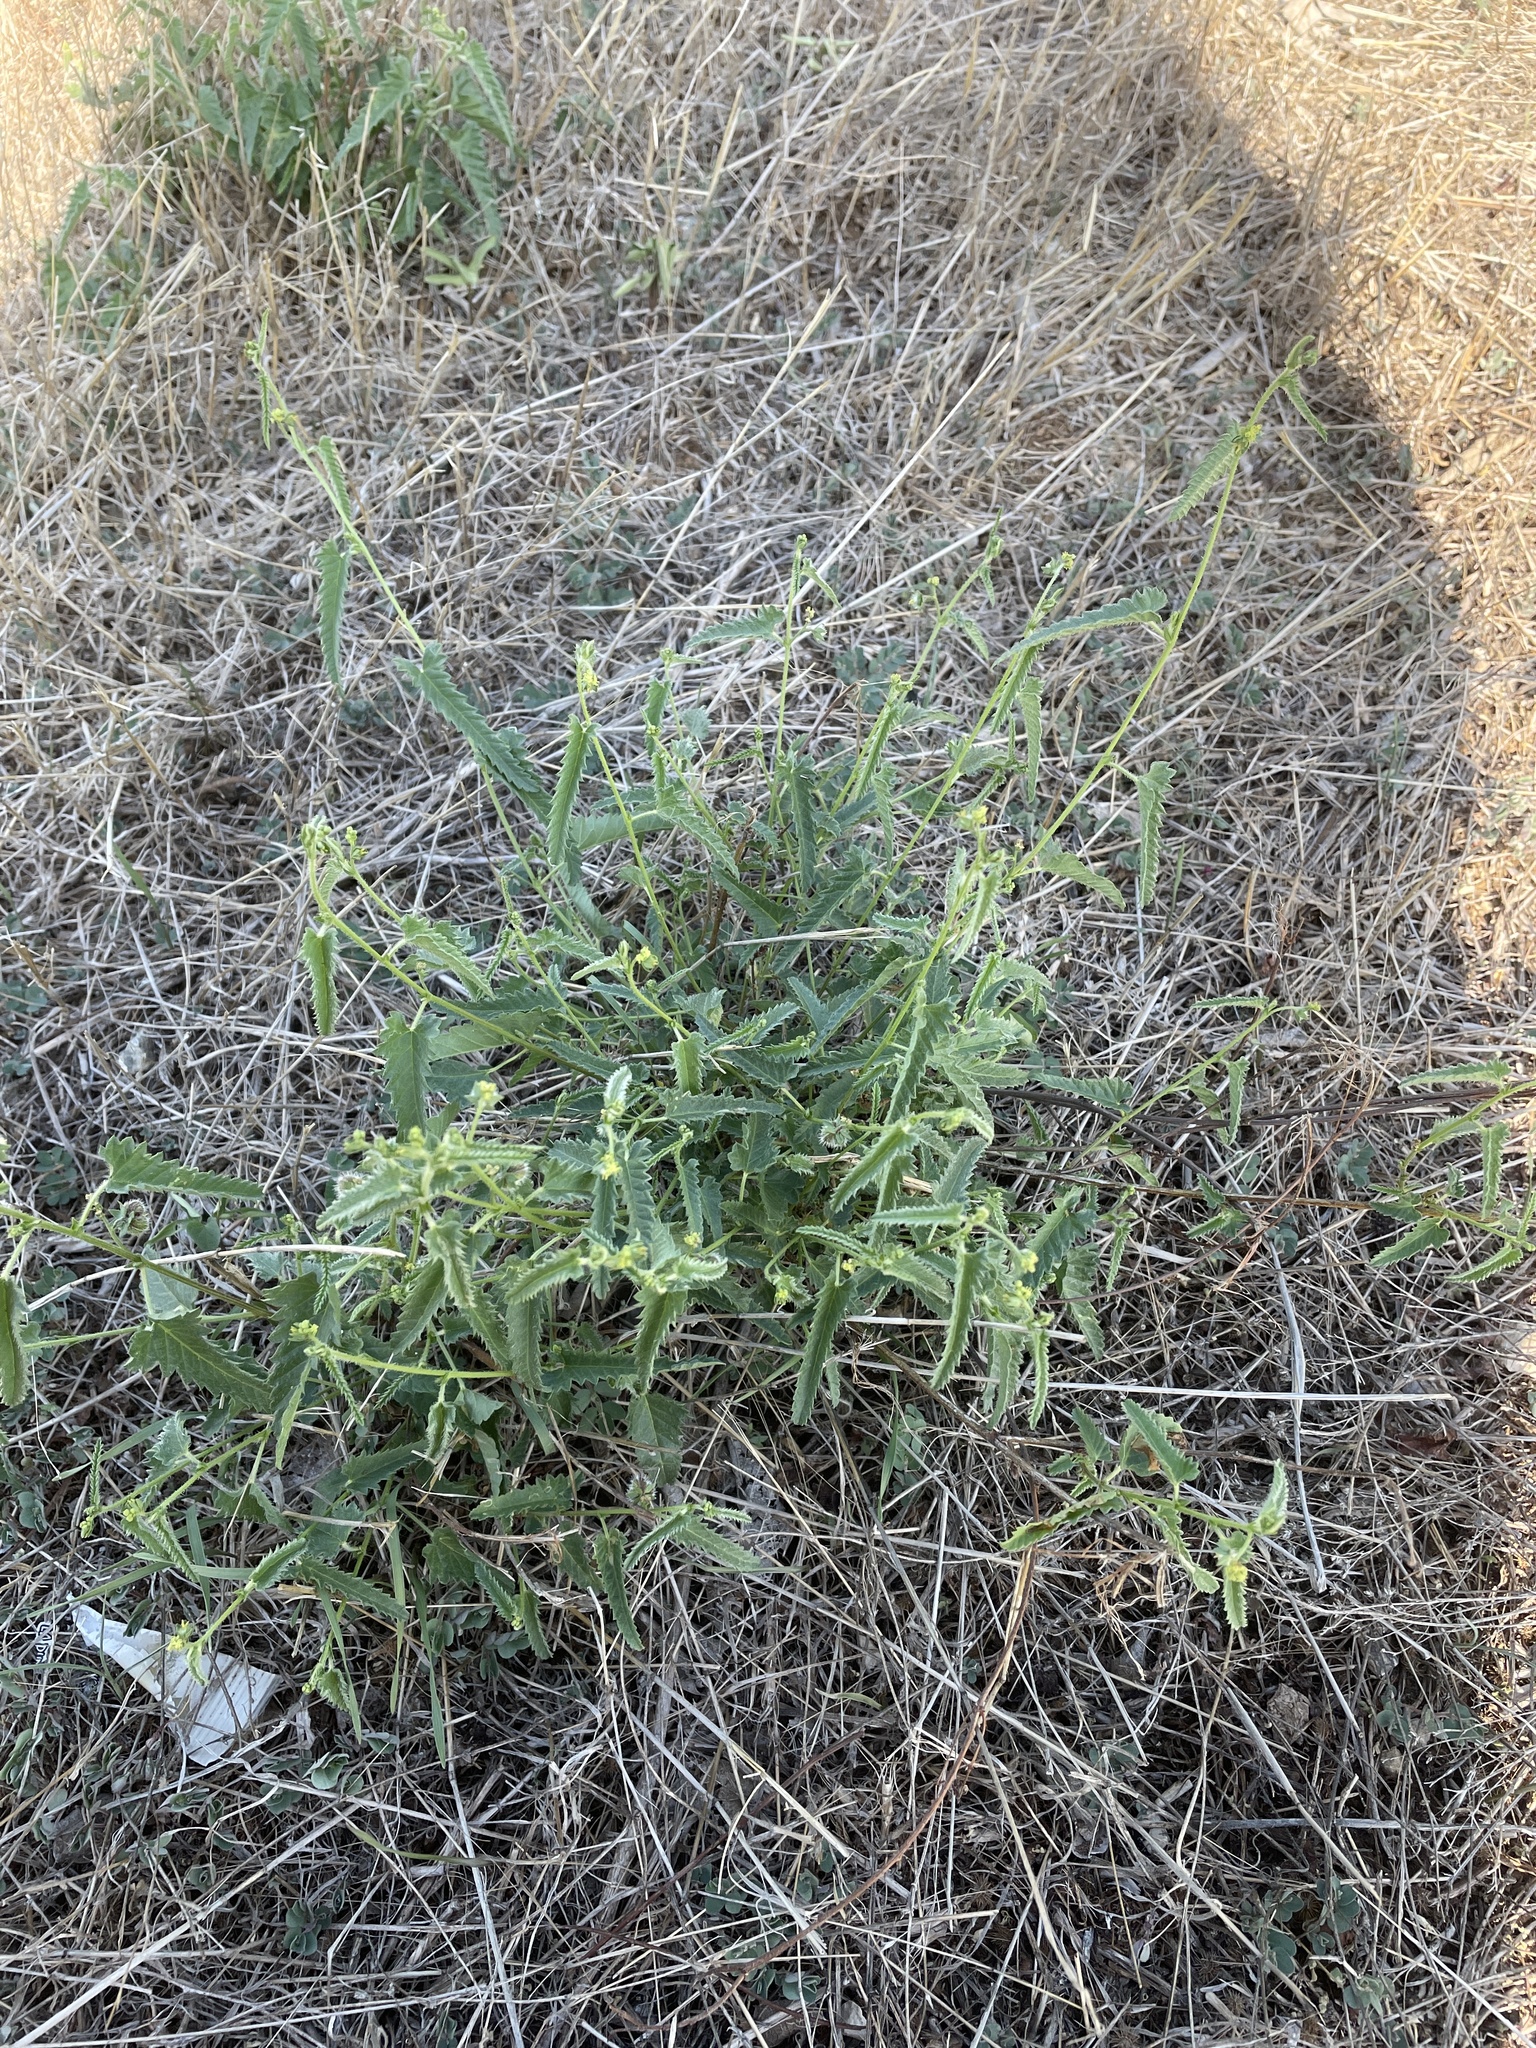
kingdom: Plantae
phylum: Tracheophyta
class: Magnoliopsida
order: Malpighiales
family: Euphorbiaceae
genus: Tragia
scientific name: Tragia ramosa
